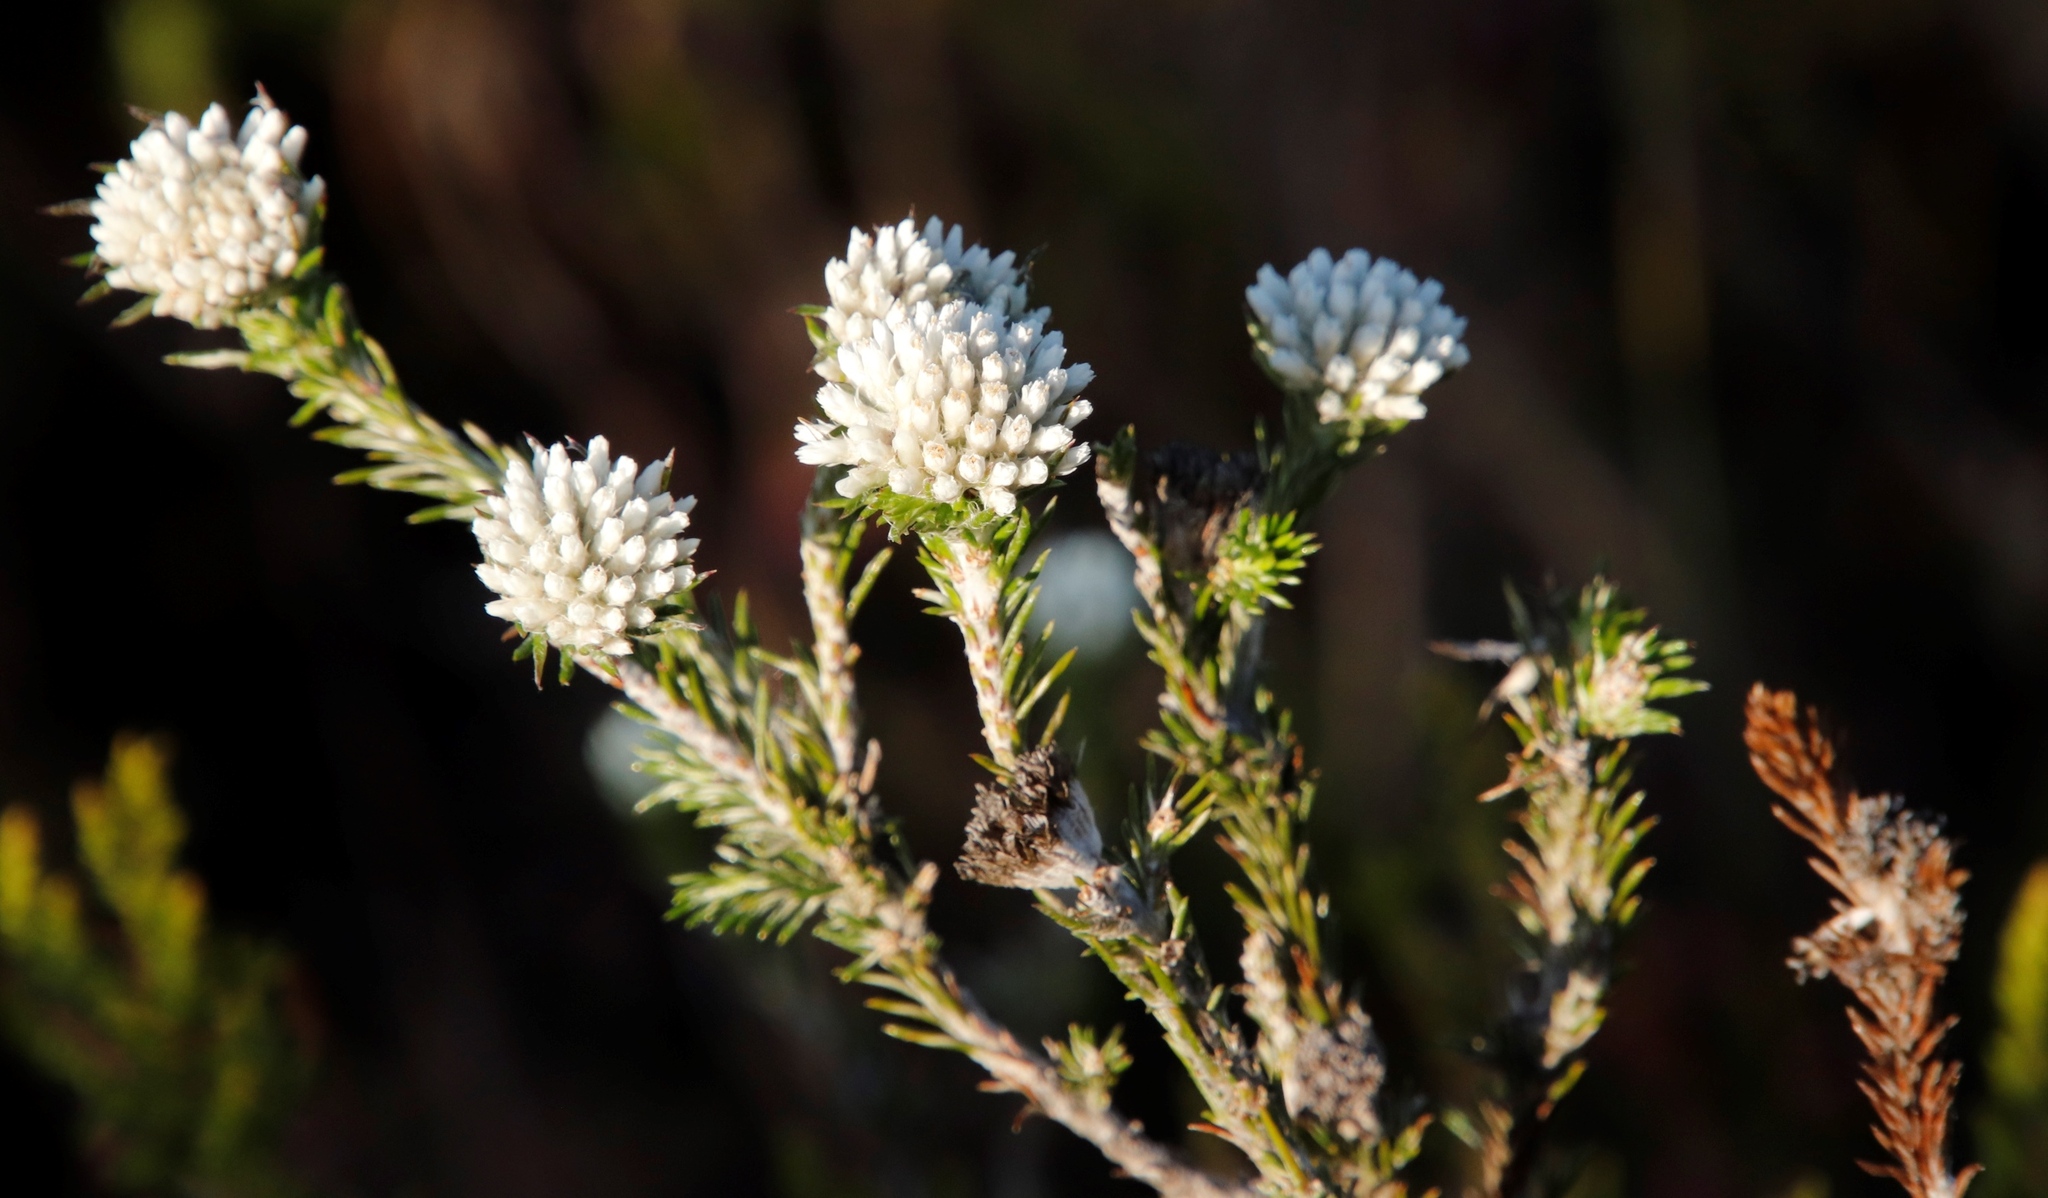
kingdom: Plantae
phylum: Tracheophyta
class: Magnoliopsida
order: Asterales
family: Asteraceae
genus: Metalasia
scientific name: Metalasia compacta
